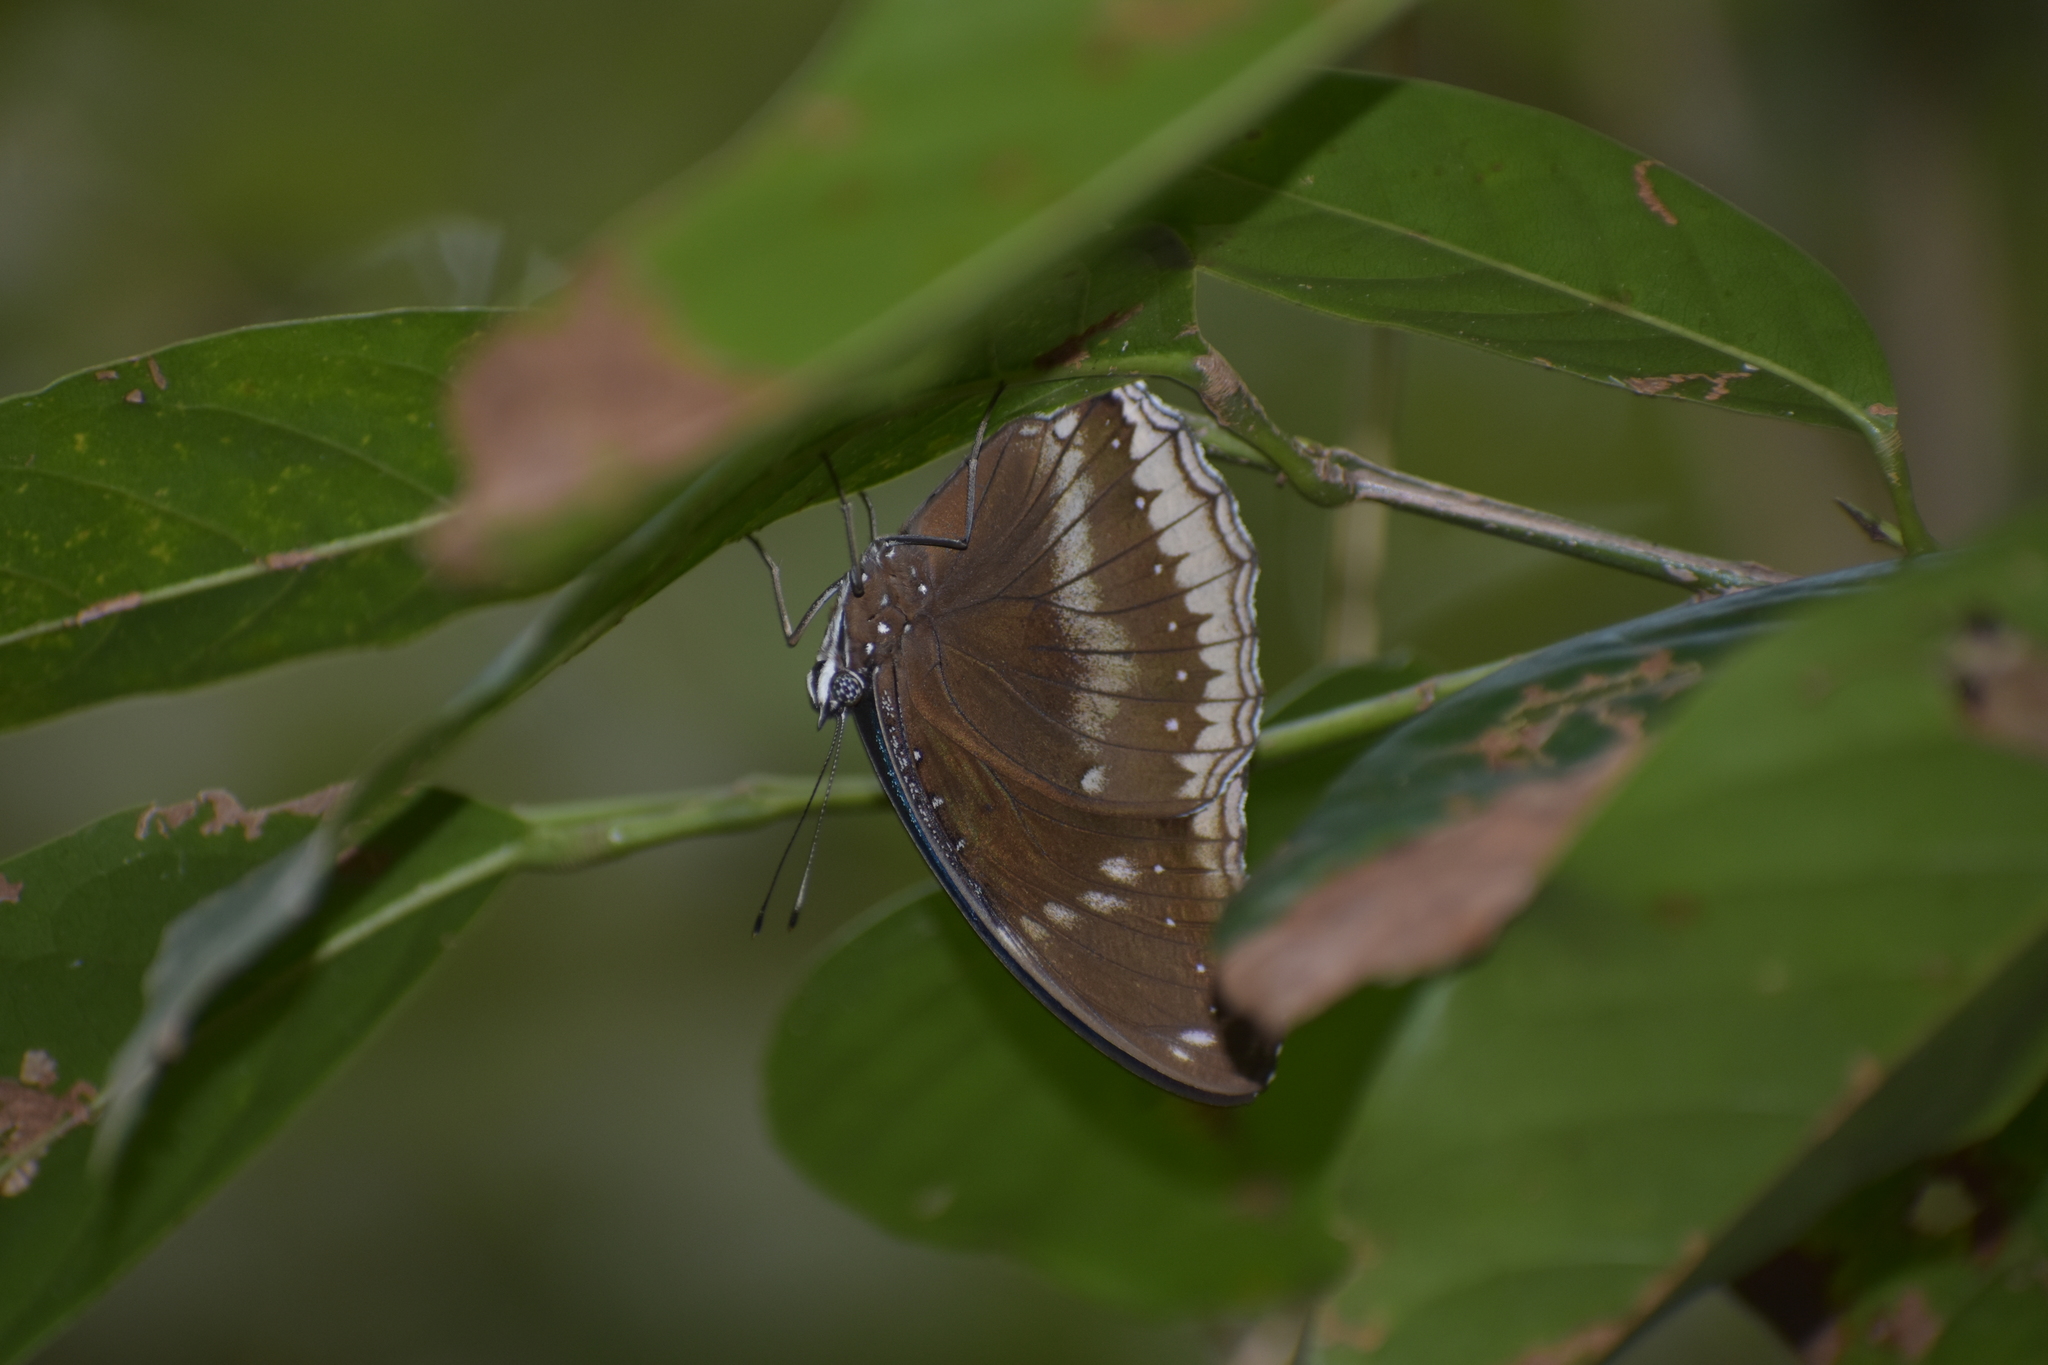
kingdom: Animalia
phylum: Arthropoda
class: Insecta
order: Lepidoptera
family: Nymphalidae
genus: Hypolimnas
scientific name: Hypolimnas bolina
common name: Great eggfly
